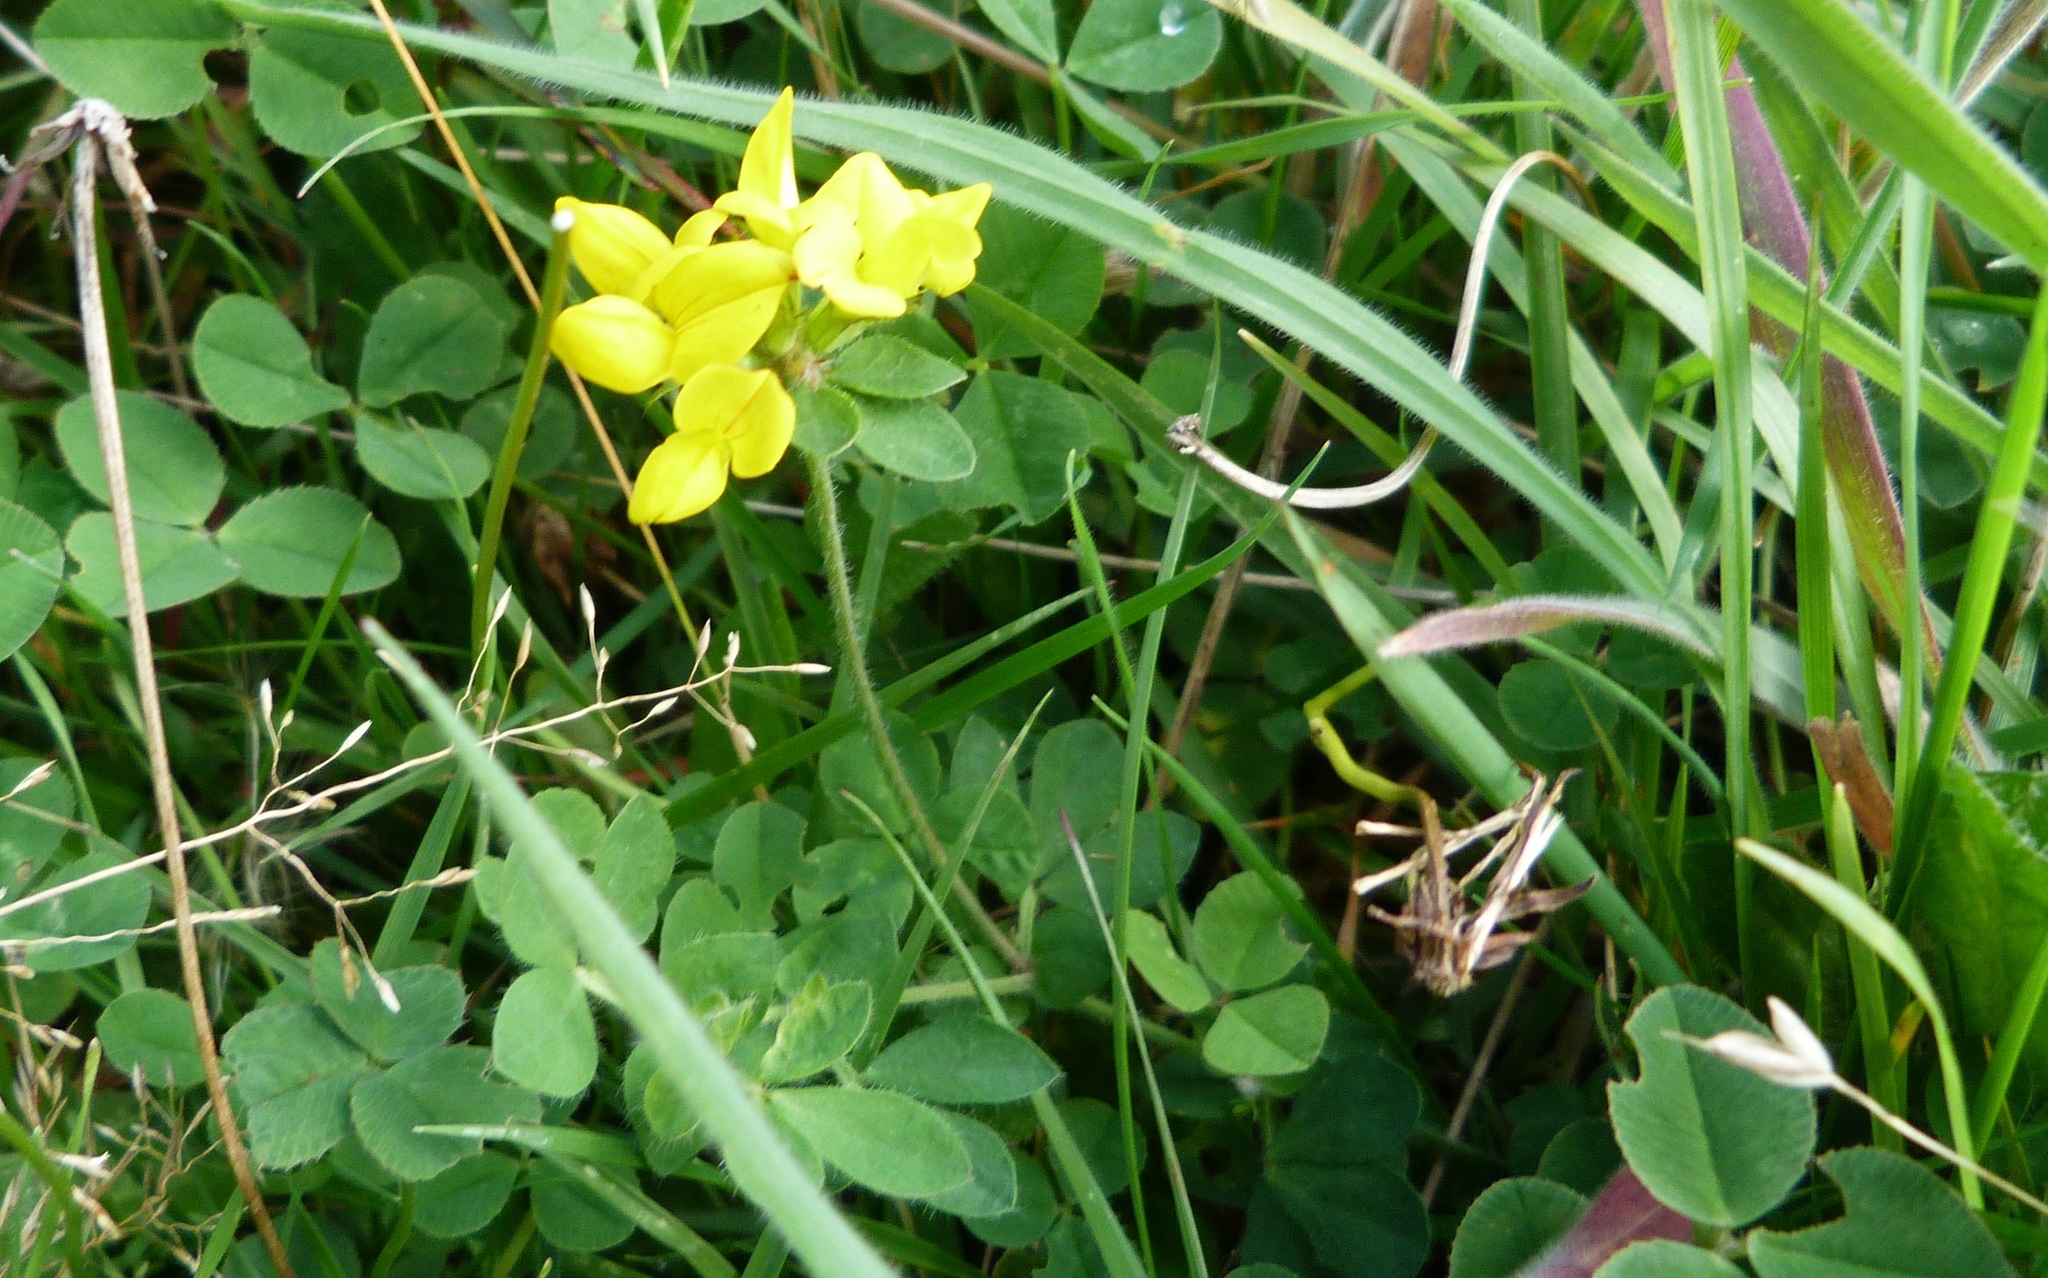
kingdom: Plantae
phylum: Tracheophyta
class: Magnoliopsida
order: Fabales
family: Fabaceae
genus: Lotus
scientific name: Lotus pedunculatus
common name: Greater birdsfoot-trefoil
